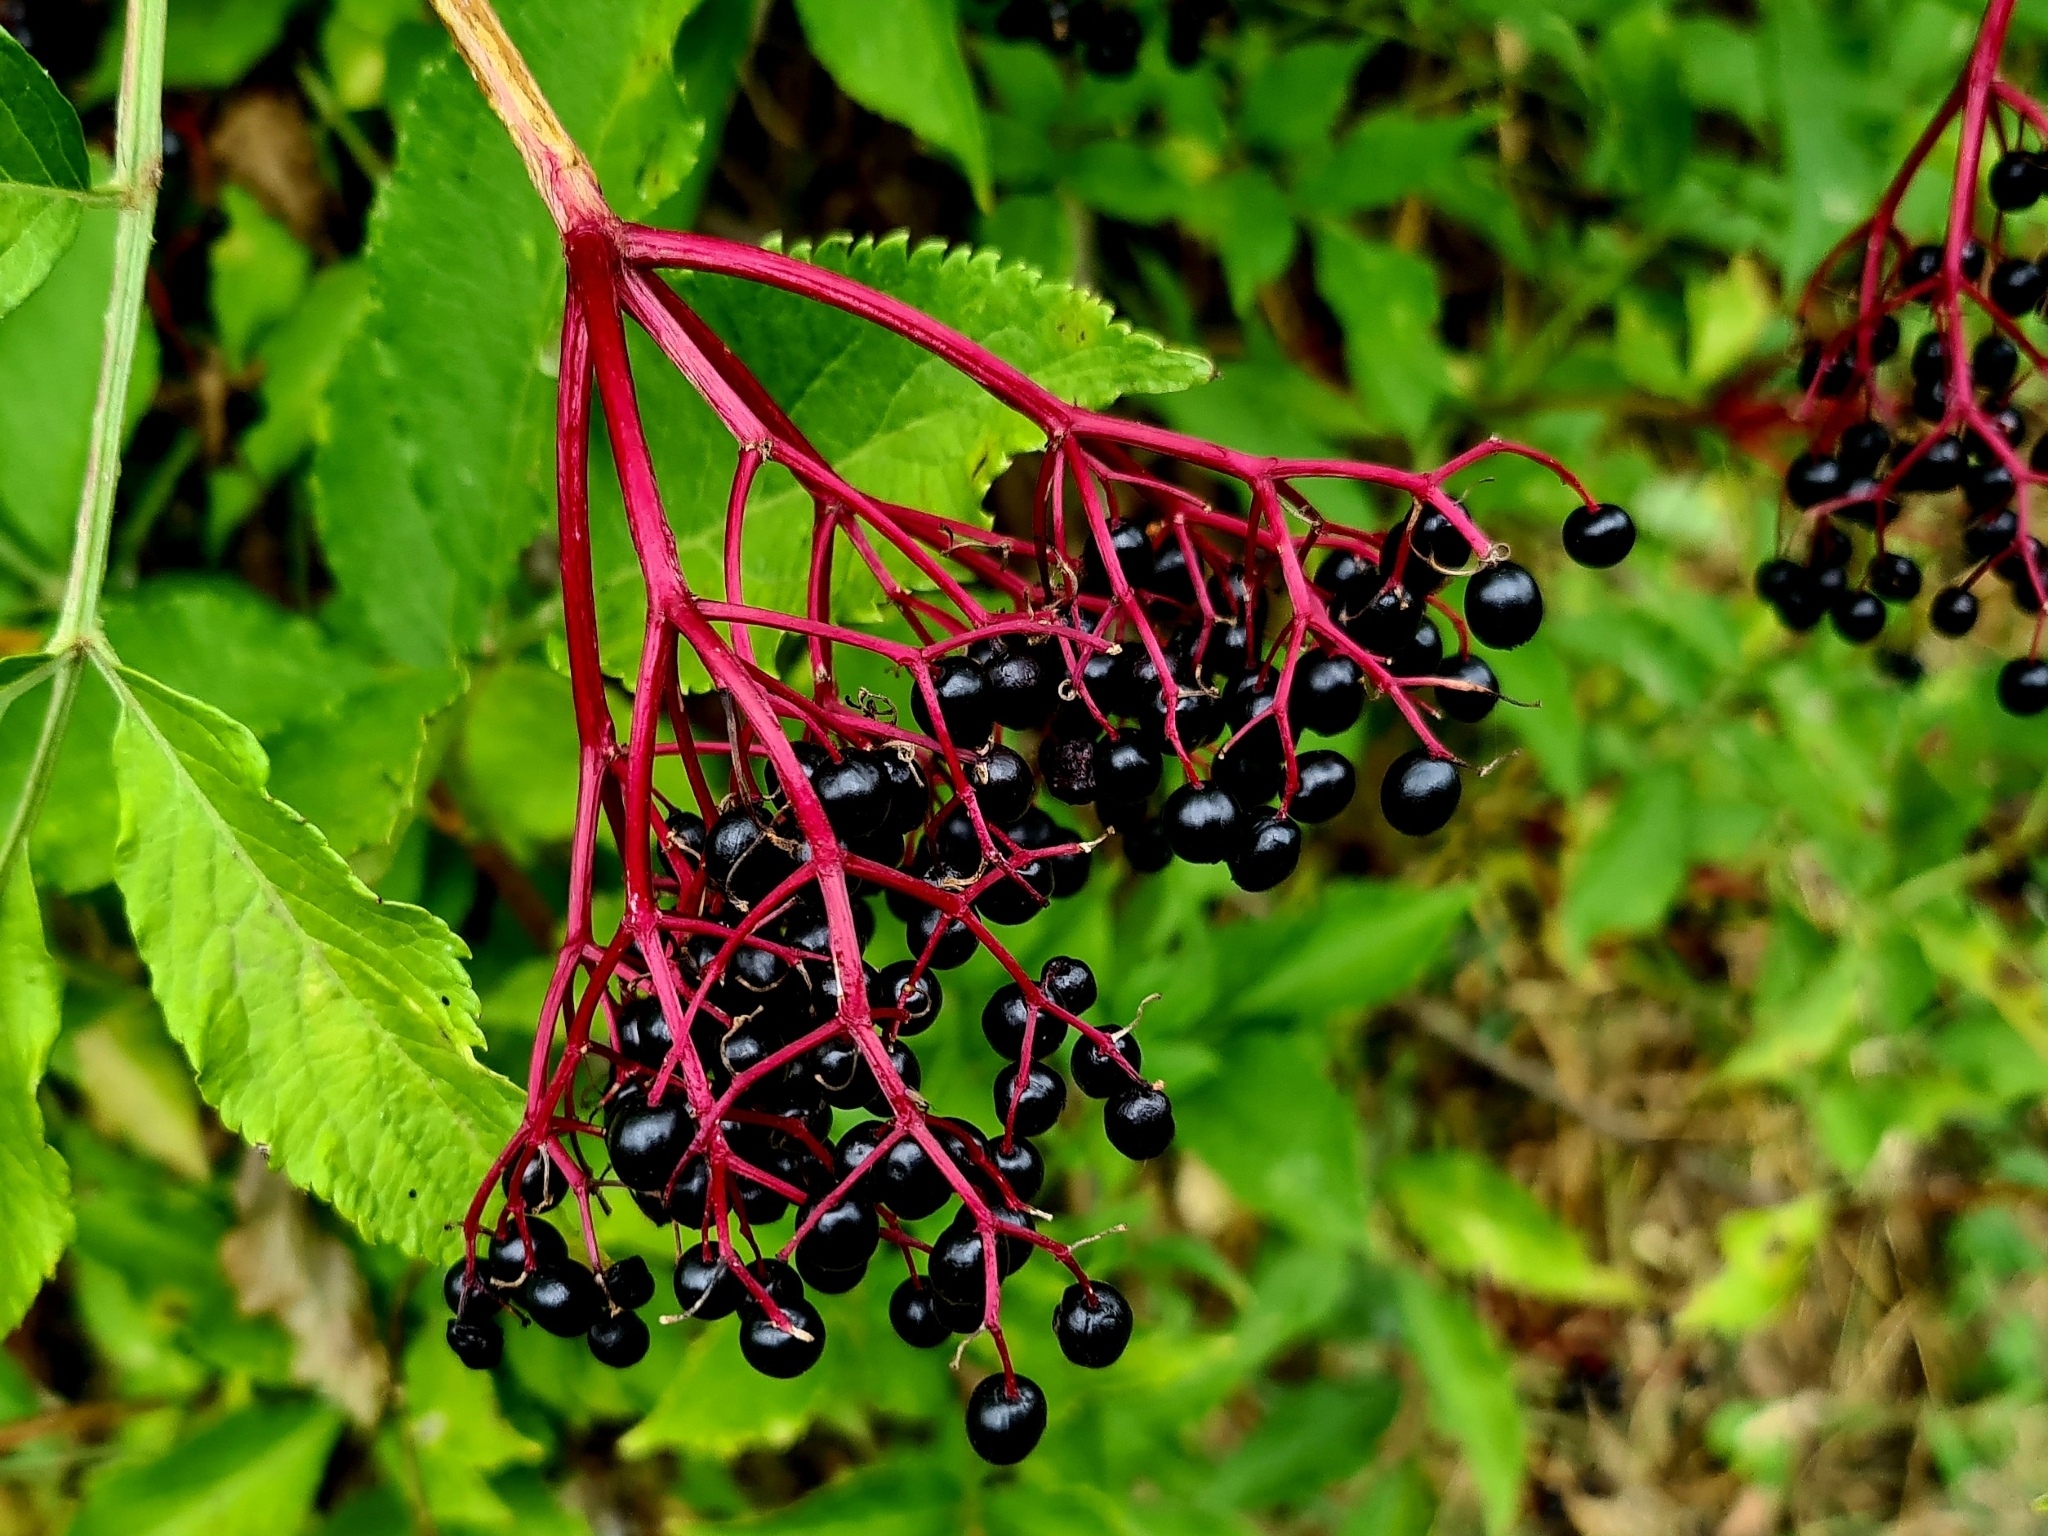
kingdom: Plantae
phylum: Tracheophyta
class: Magnoliopsida
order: Dipsacales
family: Viburnaceae
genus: Sambucus
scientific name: Sambucus nigra
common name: Elder
